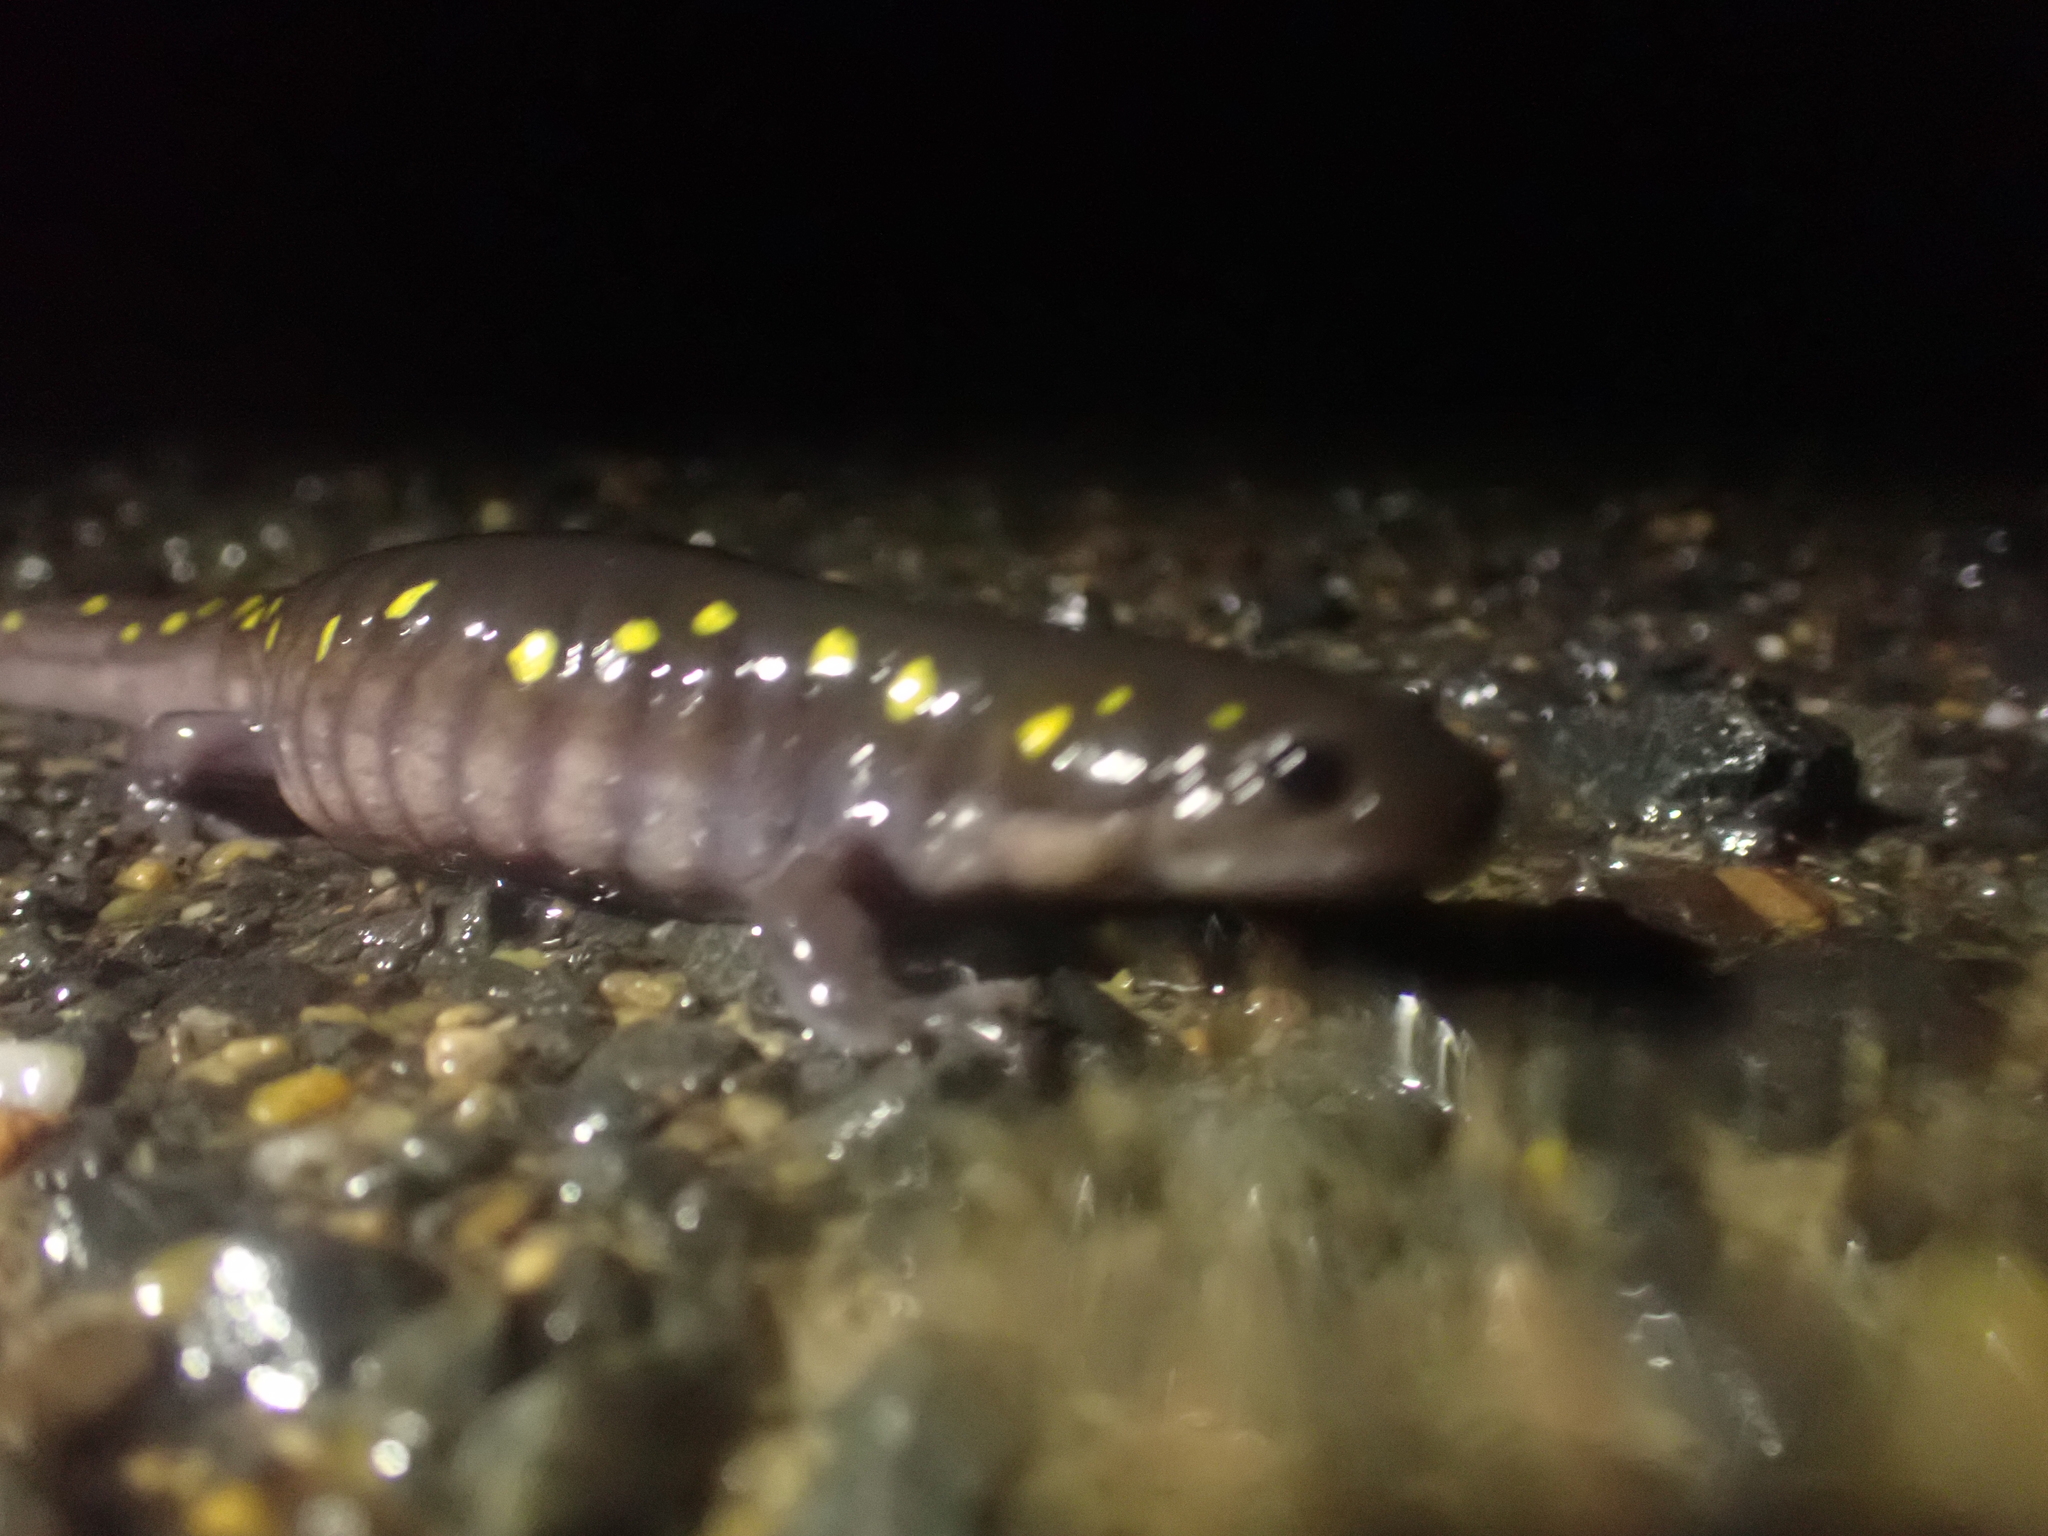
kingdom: Animalia
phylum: Chordata
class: Amphibia
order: Caudata
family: Ambystomatidae
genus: Ambystoma
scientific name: Ambystoma maculatum
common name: Spotted salamander
